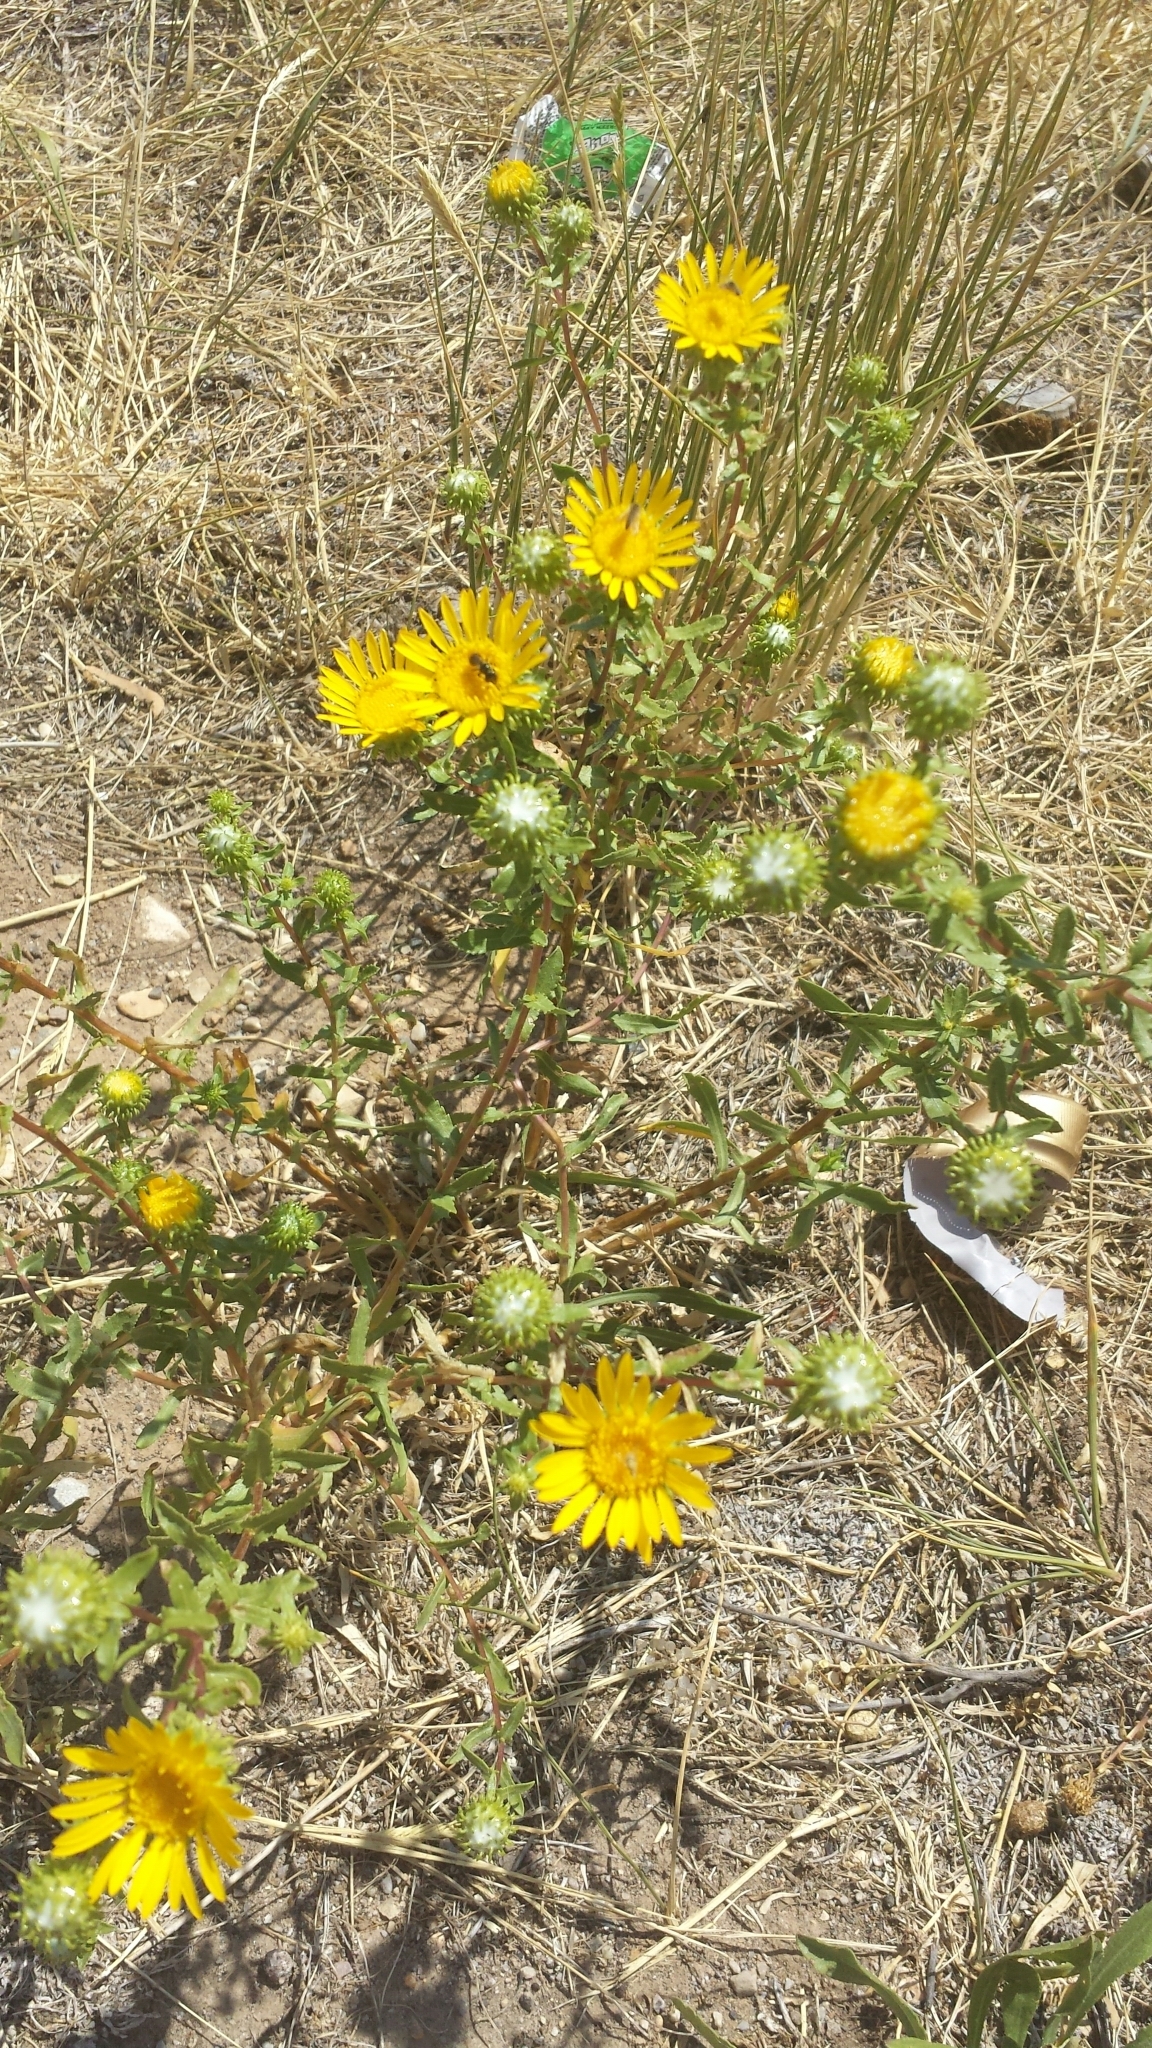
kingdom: Plantae
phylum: Tracheophyta
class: Magnoliopsida
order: Asterales
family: Asteraceae
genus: Grindelia
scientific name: Grindelia squarrosa
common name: Curly-cup gumweed
